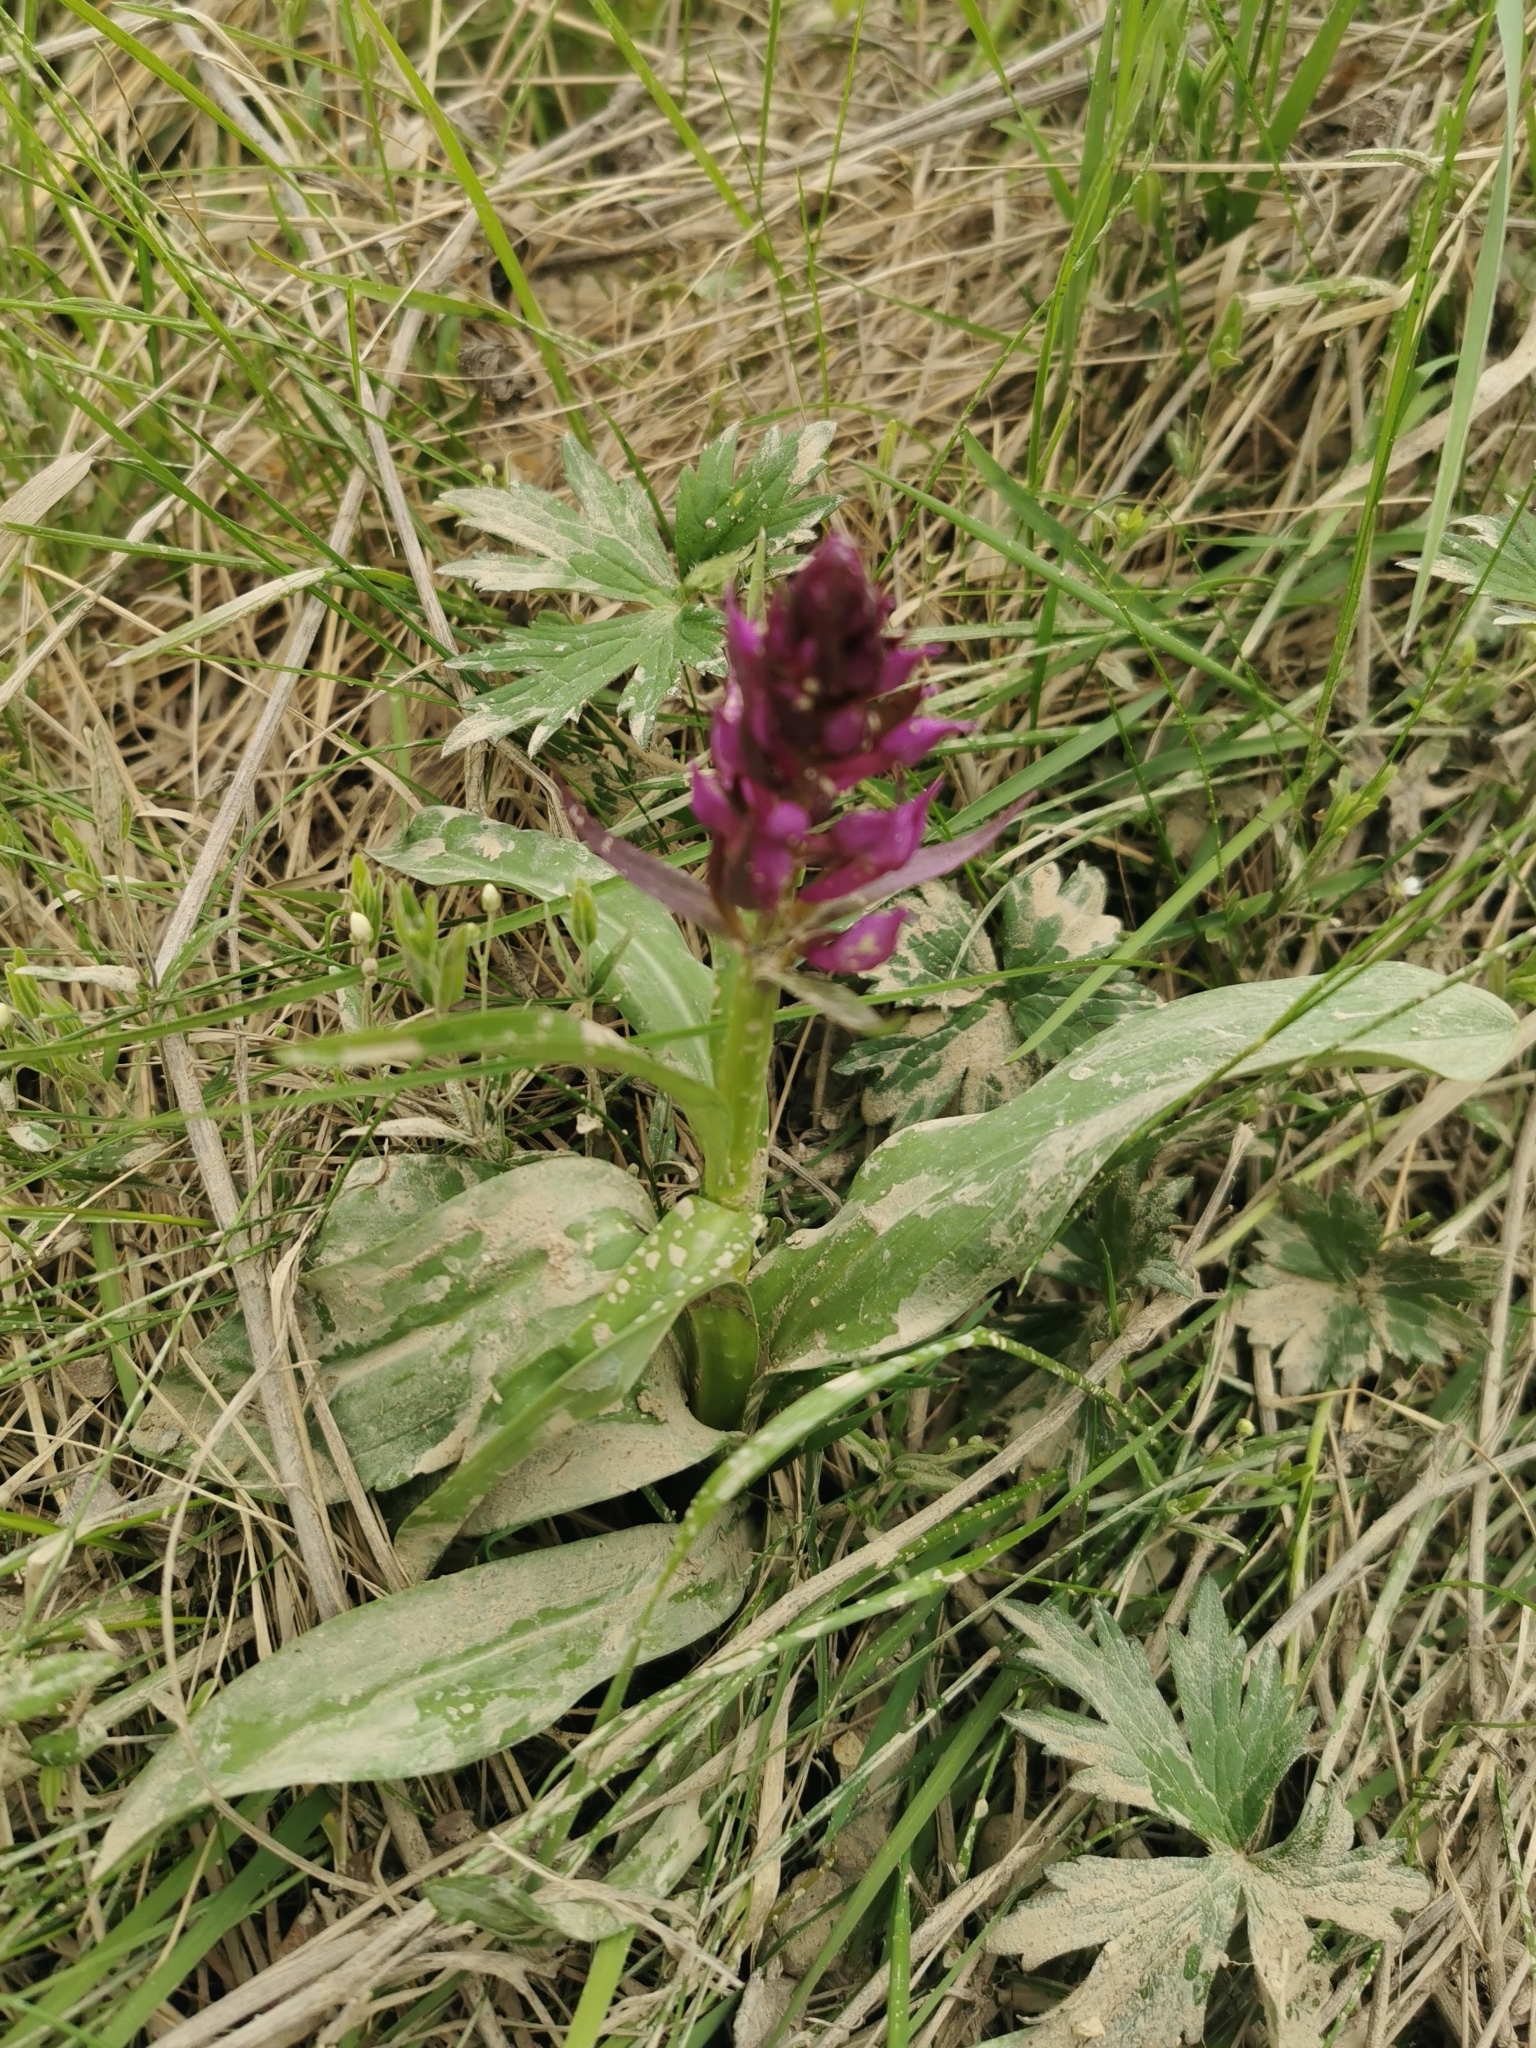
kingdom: Plantae
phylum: Tracheophyta
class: Liliopsida
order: Asparagales
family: Orchidaceae
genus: Dactylorhiza
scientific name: Dactylorhiza aristata
